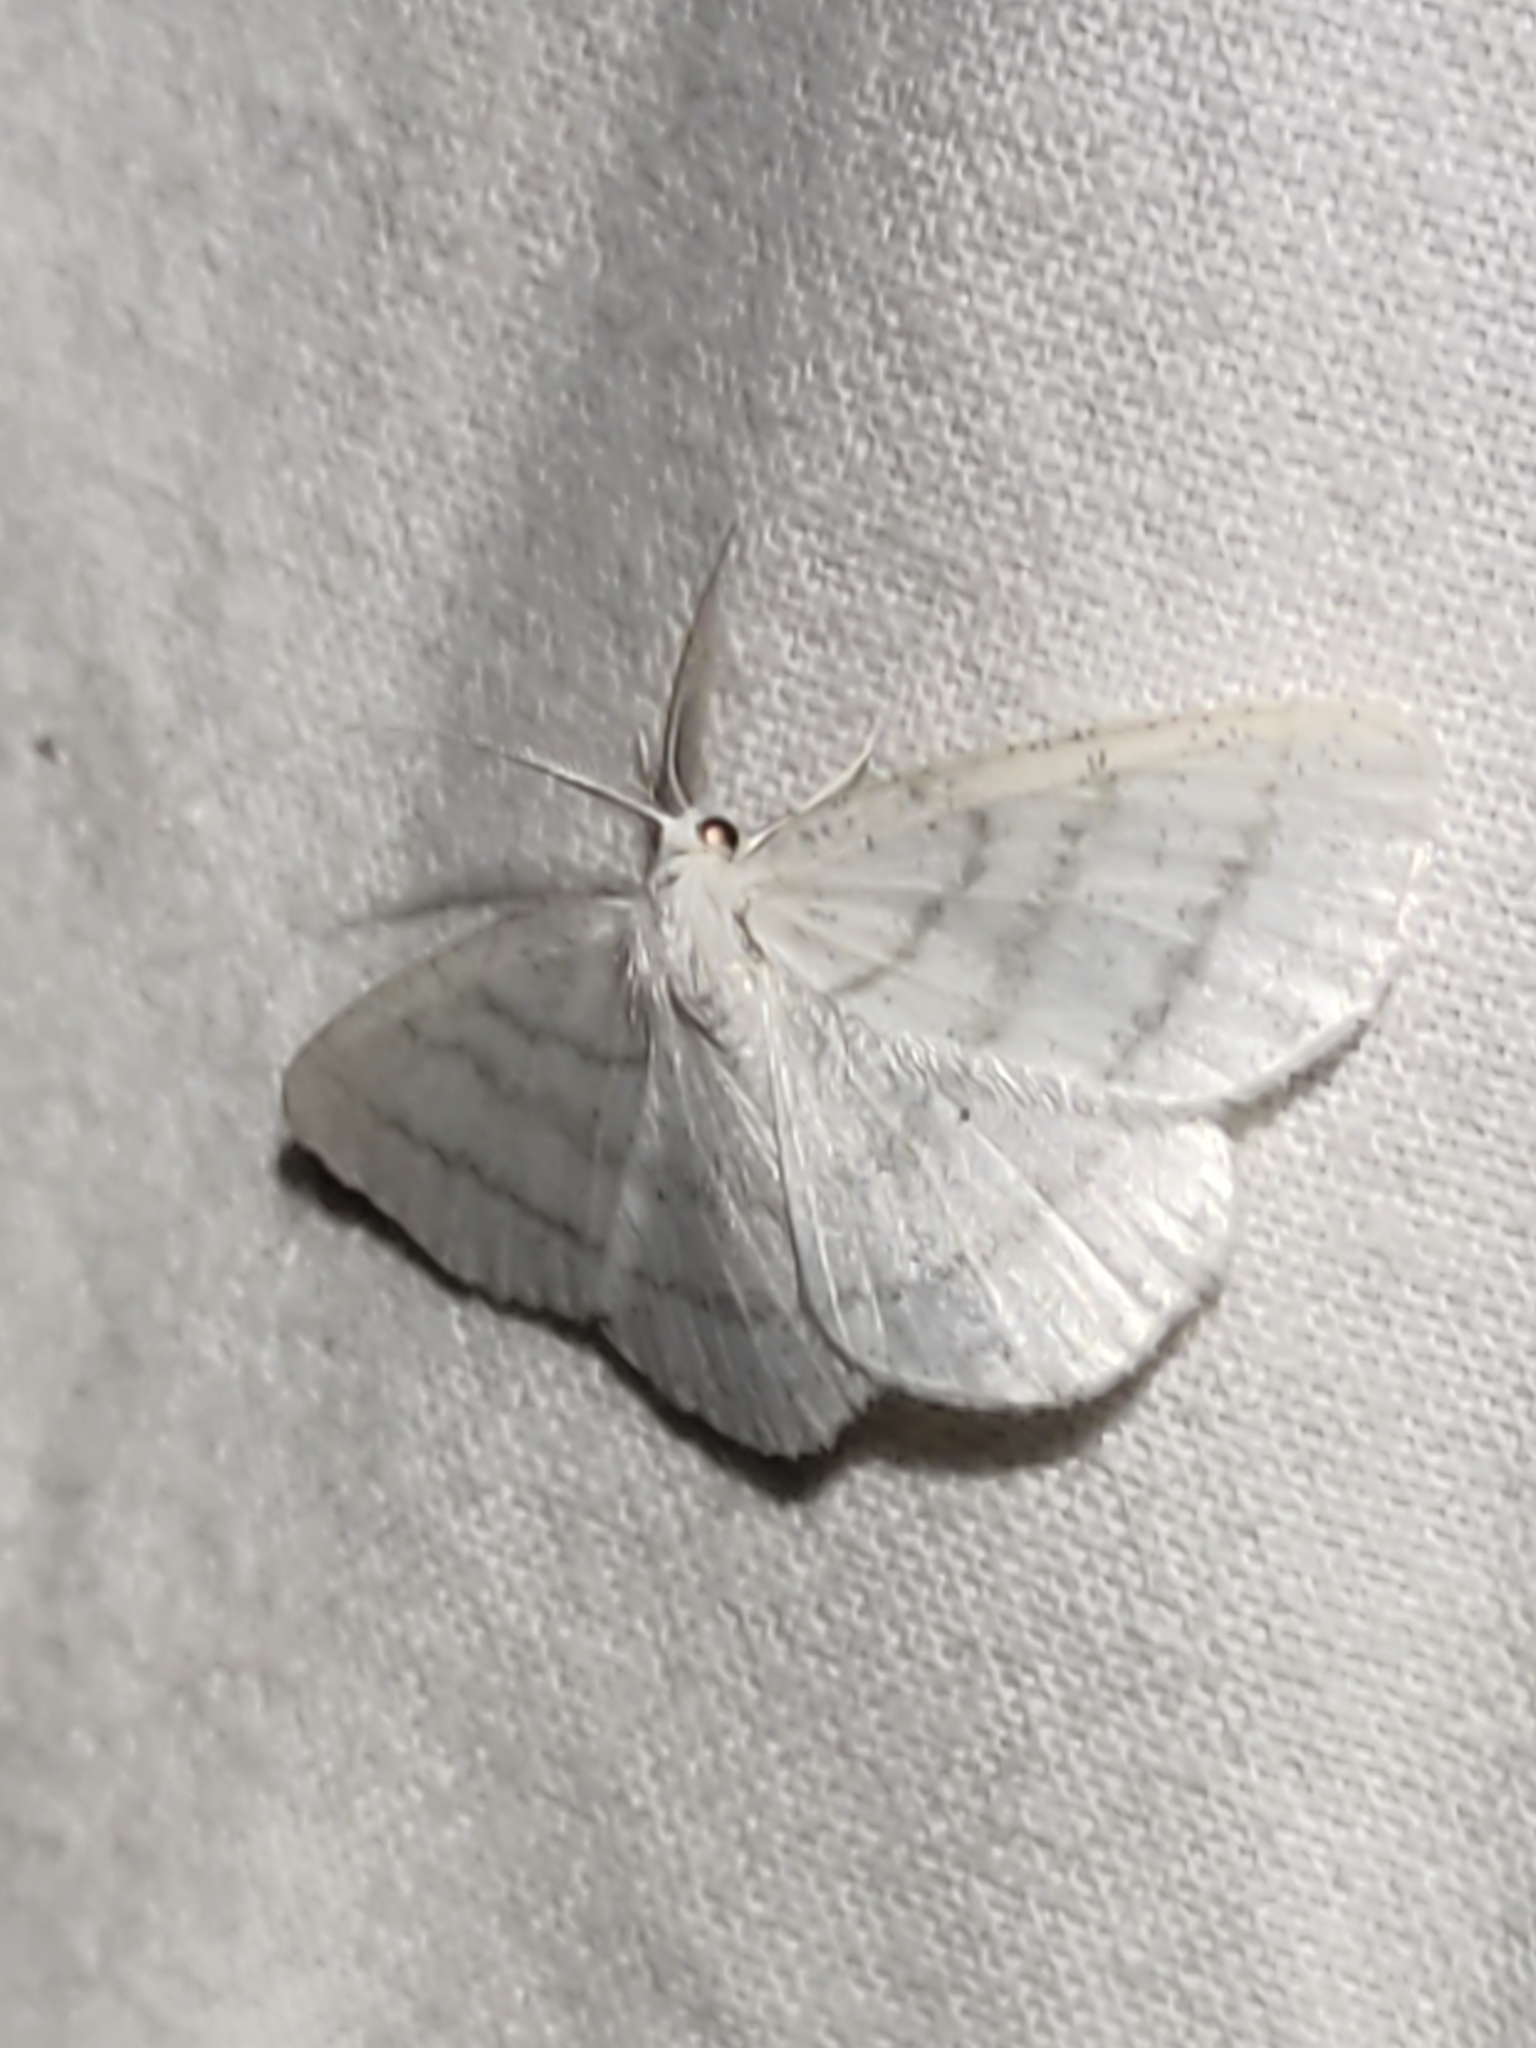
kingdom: Animalia
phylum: Arthropoda
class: Insecta
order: Lepidoptera
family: Geometridae
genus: Cabera
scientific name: Cabera pusaria
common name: Common white wave
